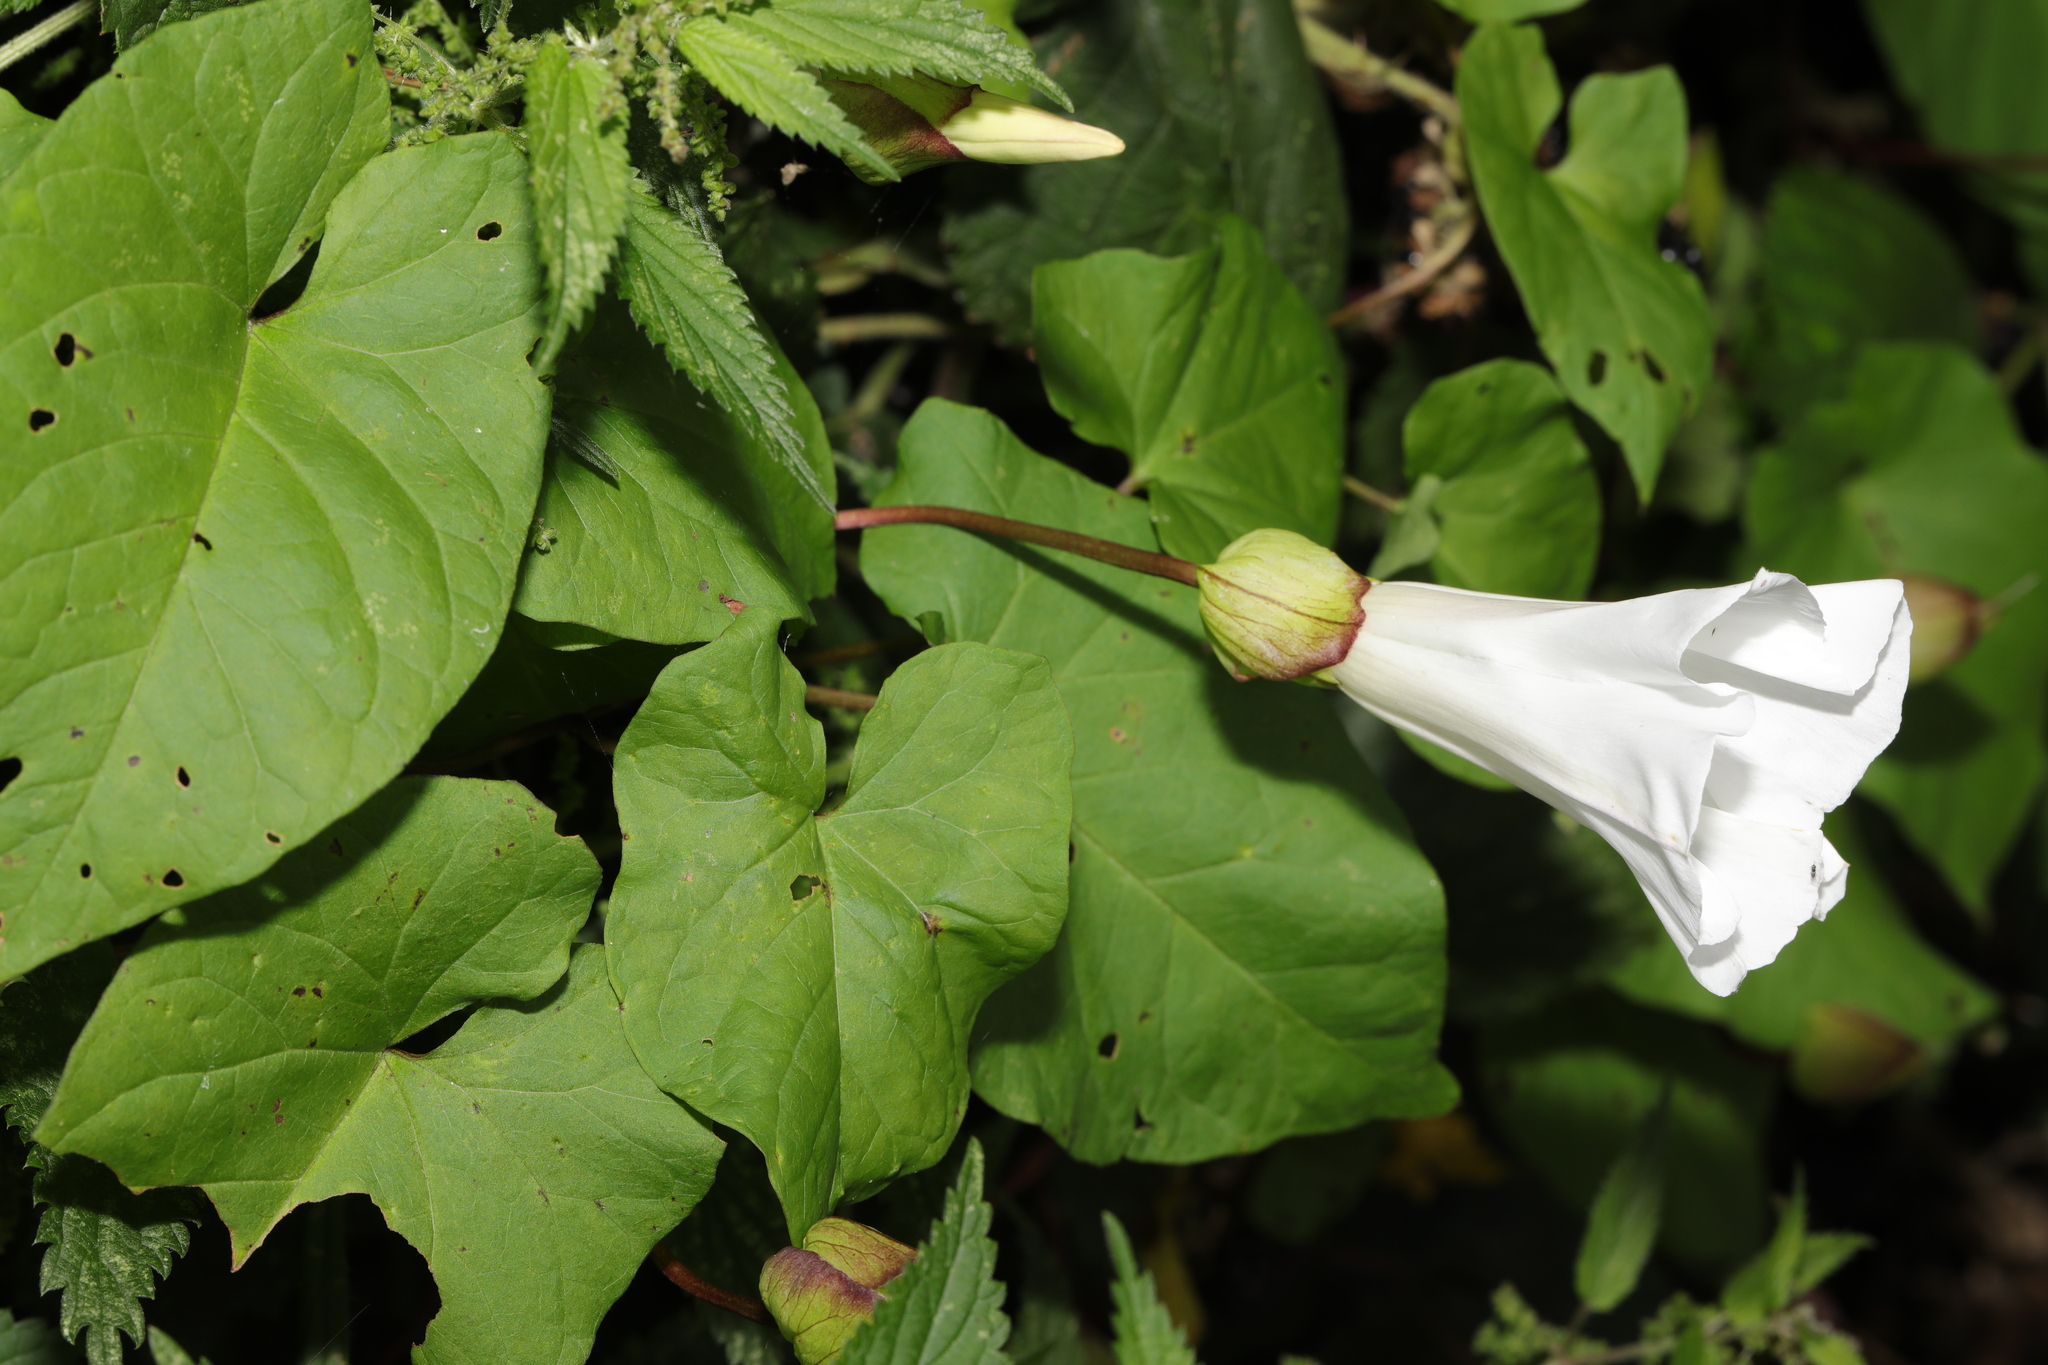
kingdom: Plantae
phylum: Tracheophyta
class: Magnoliopsida
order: Solanales
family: Convolvulaceae
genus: Calystegia
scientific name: Calystegia silvatica
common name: Large bindweed
